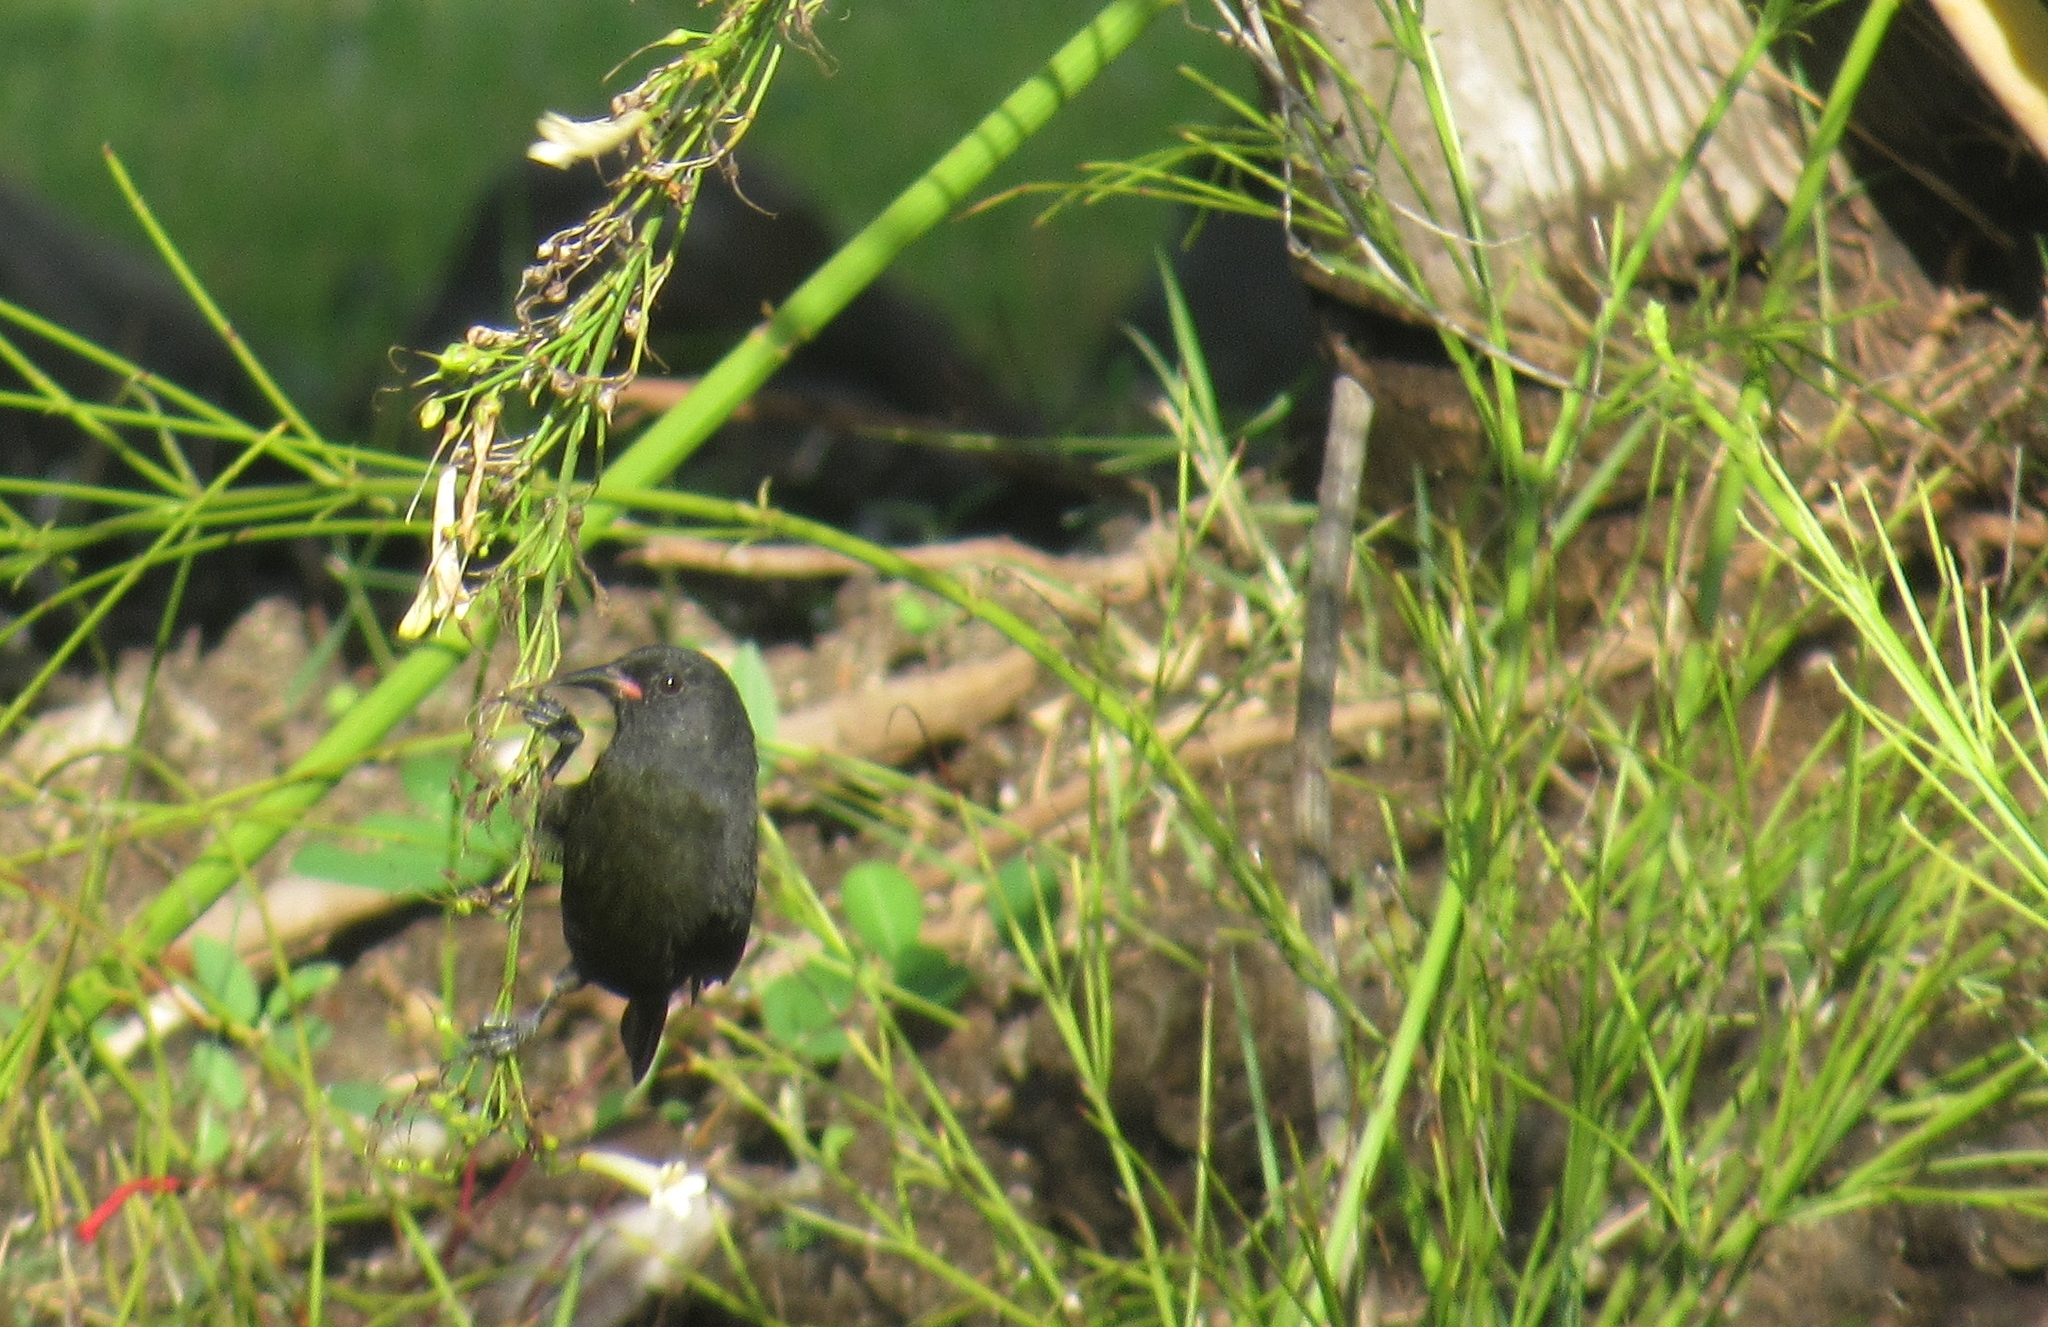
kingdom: Animalia
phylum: Chordata
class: Aves
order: Passeriformes
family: Thraupidae
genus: Coereba
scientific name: Coereba flaveola
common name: Bananaquit
